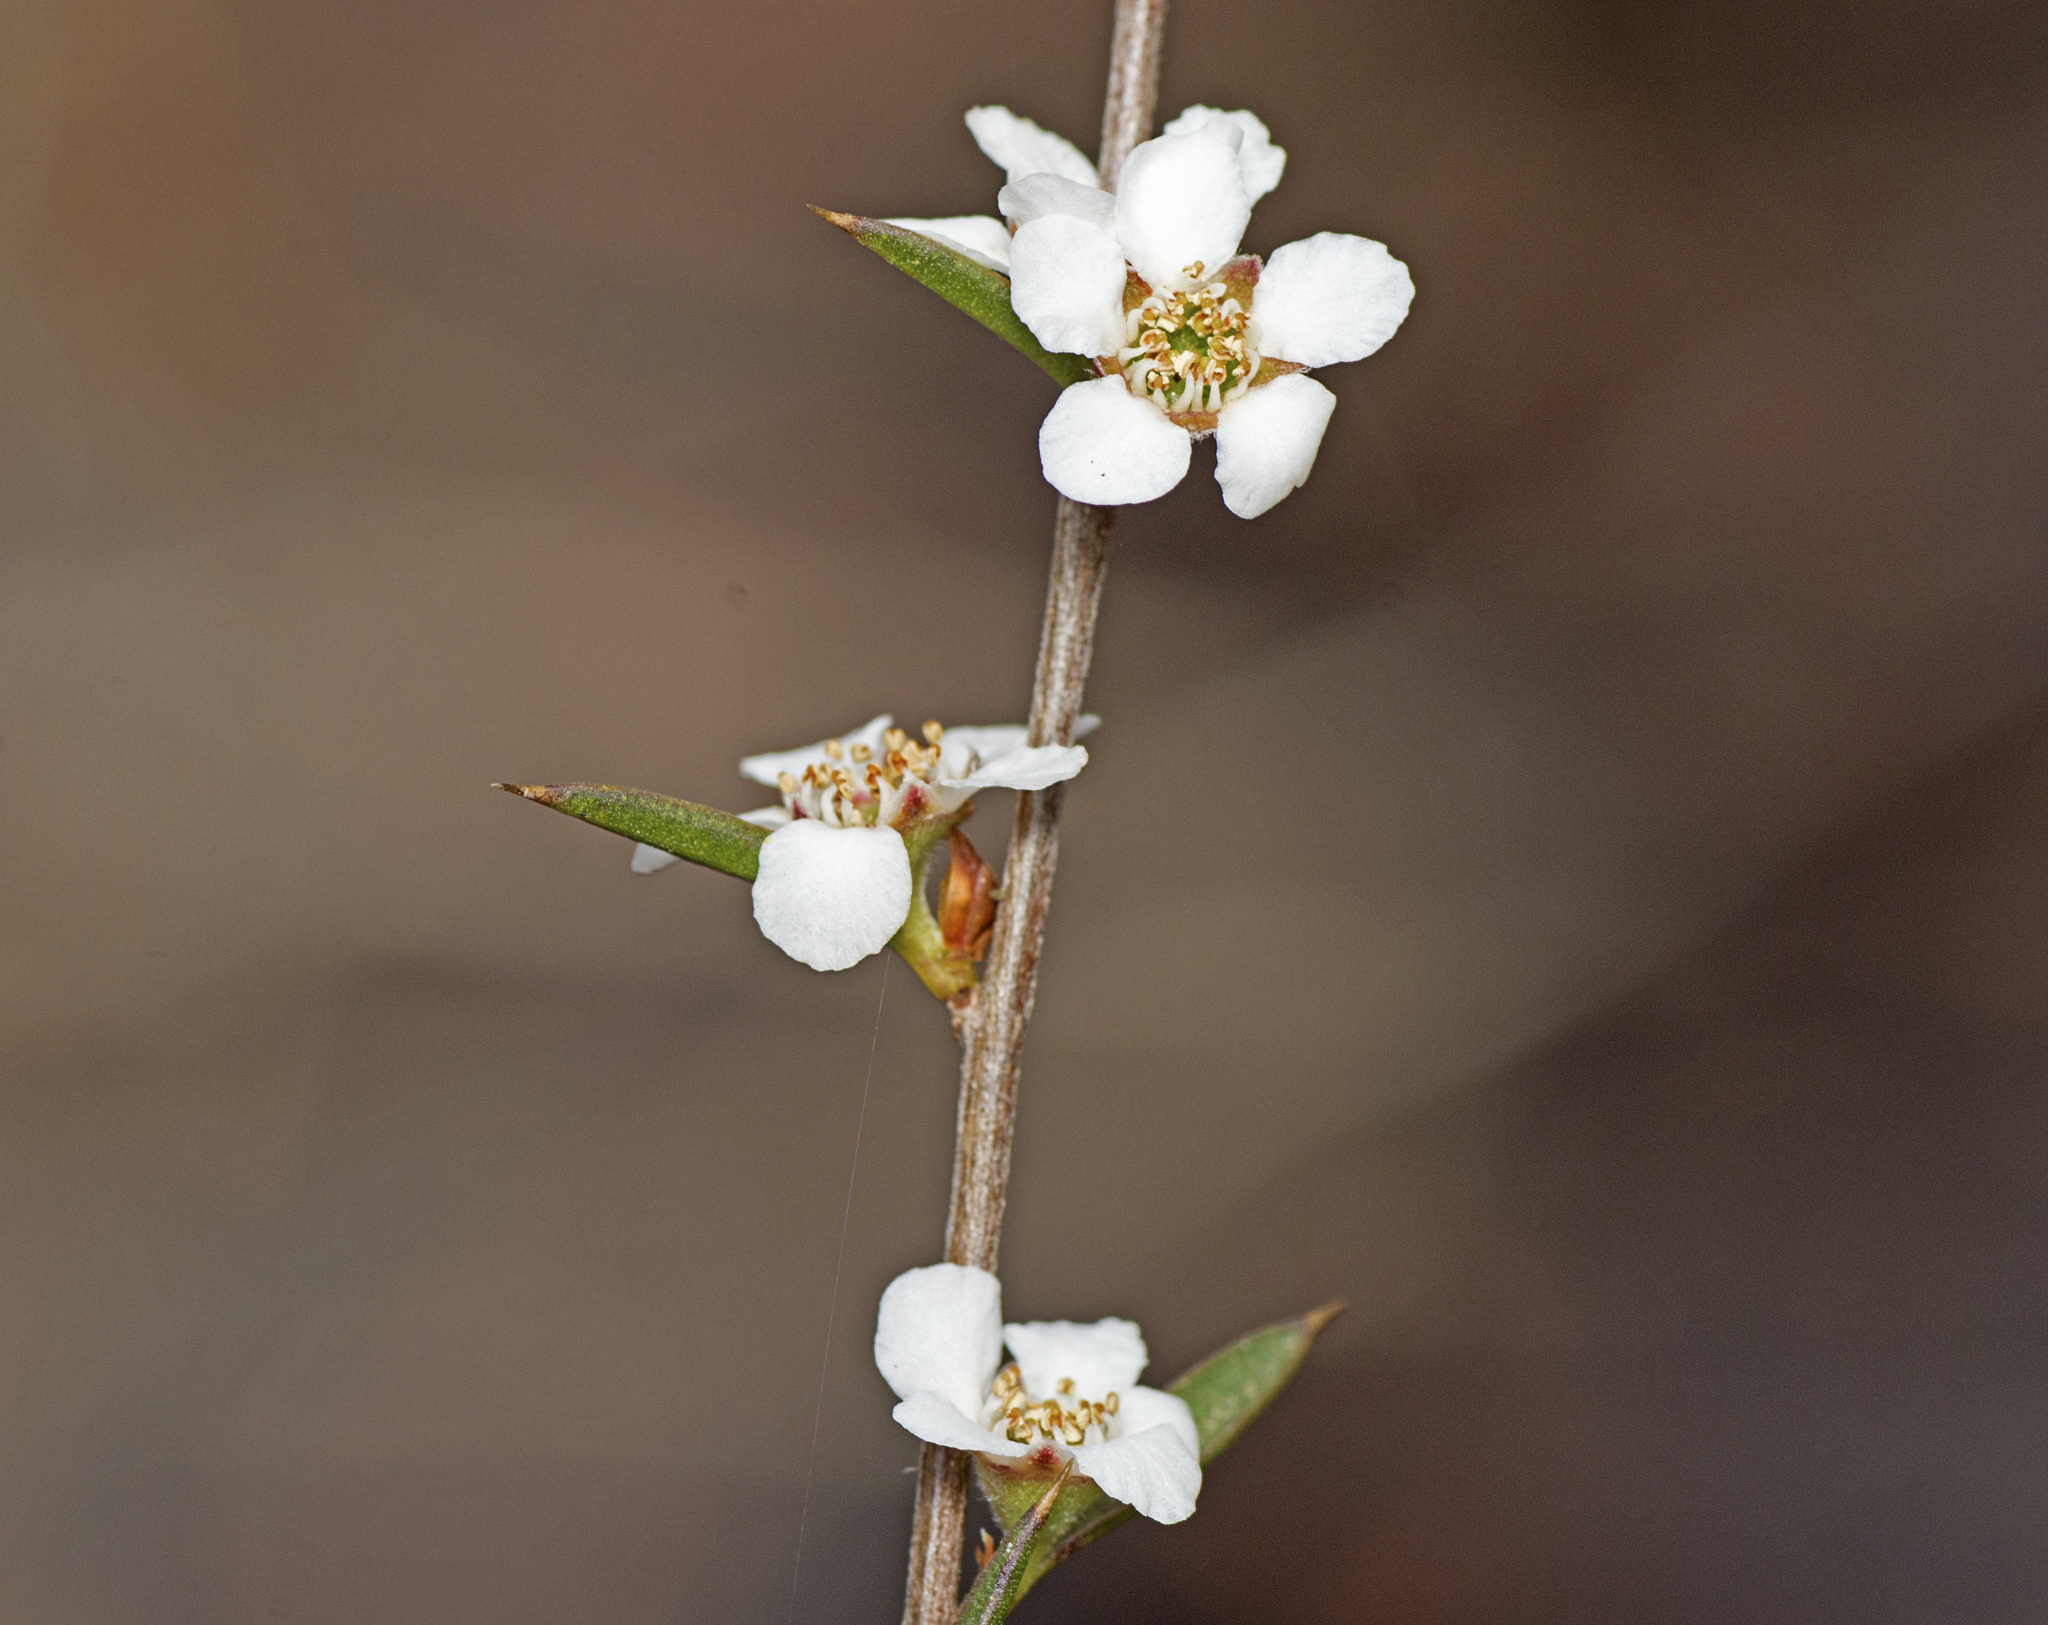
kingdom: Plantae
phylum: Tracheophyta
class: Magnoliopsida
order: Myrtales
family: Myrtaceae
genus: Leptospermum
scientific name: Leptospermum microcarpum
